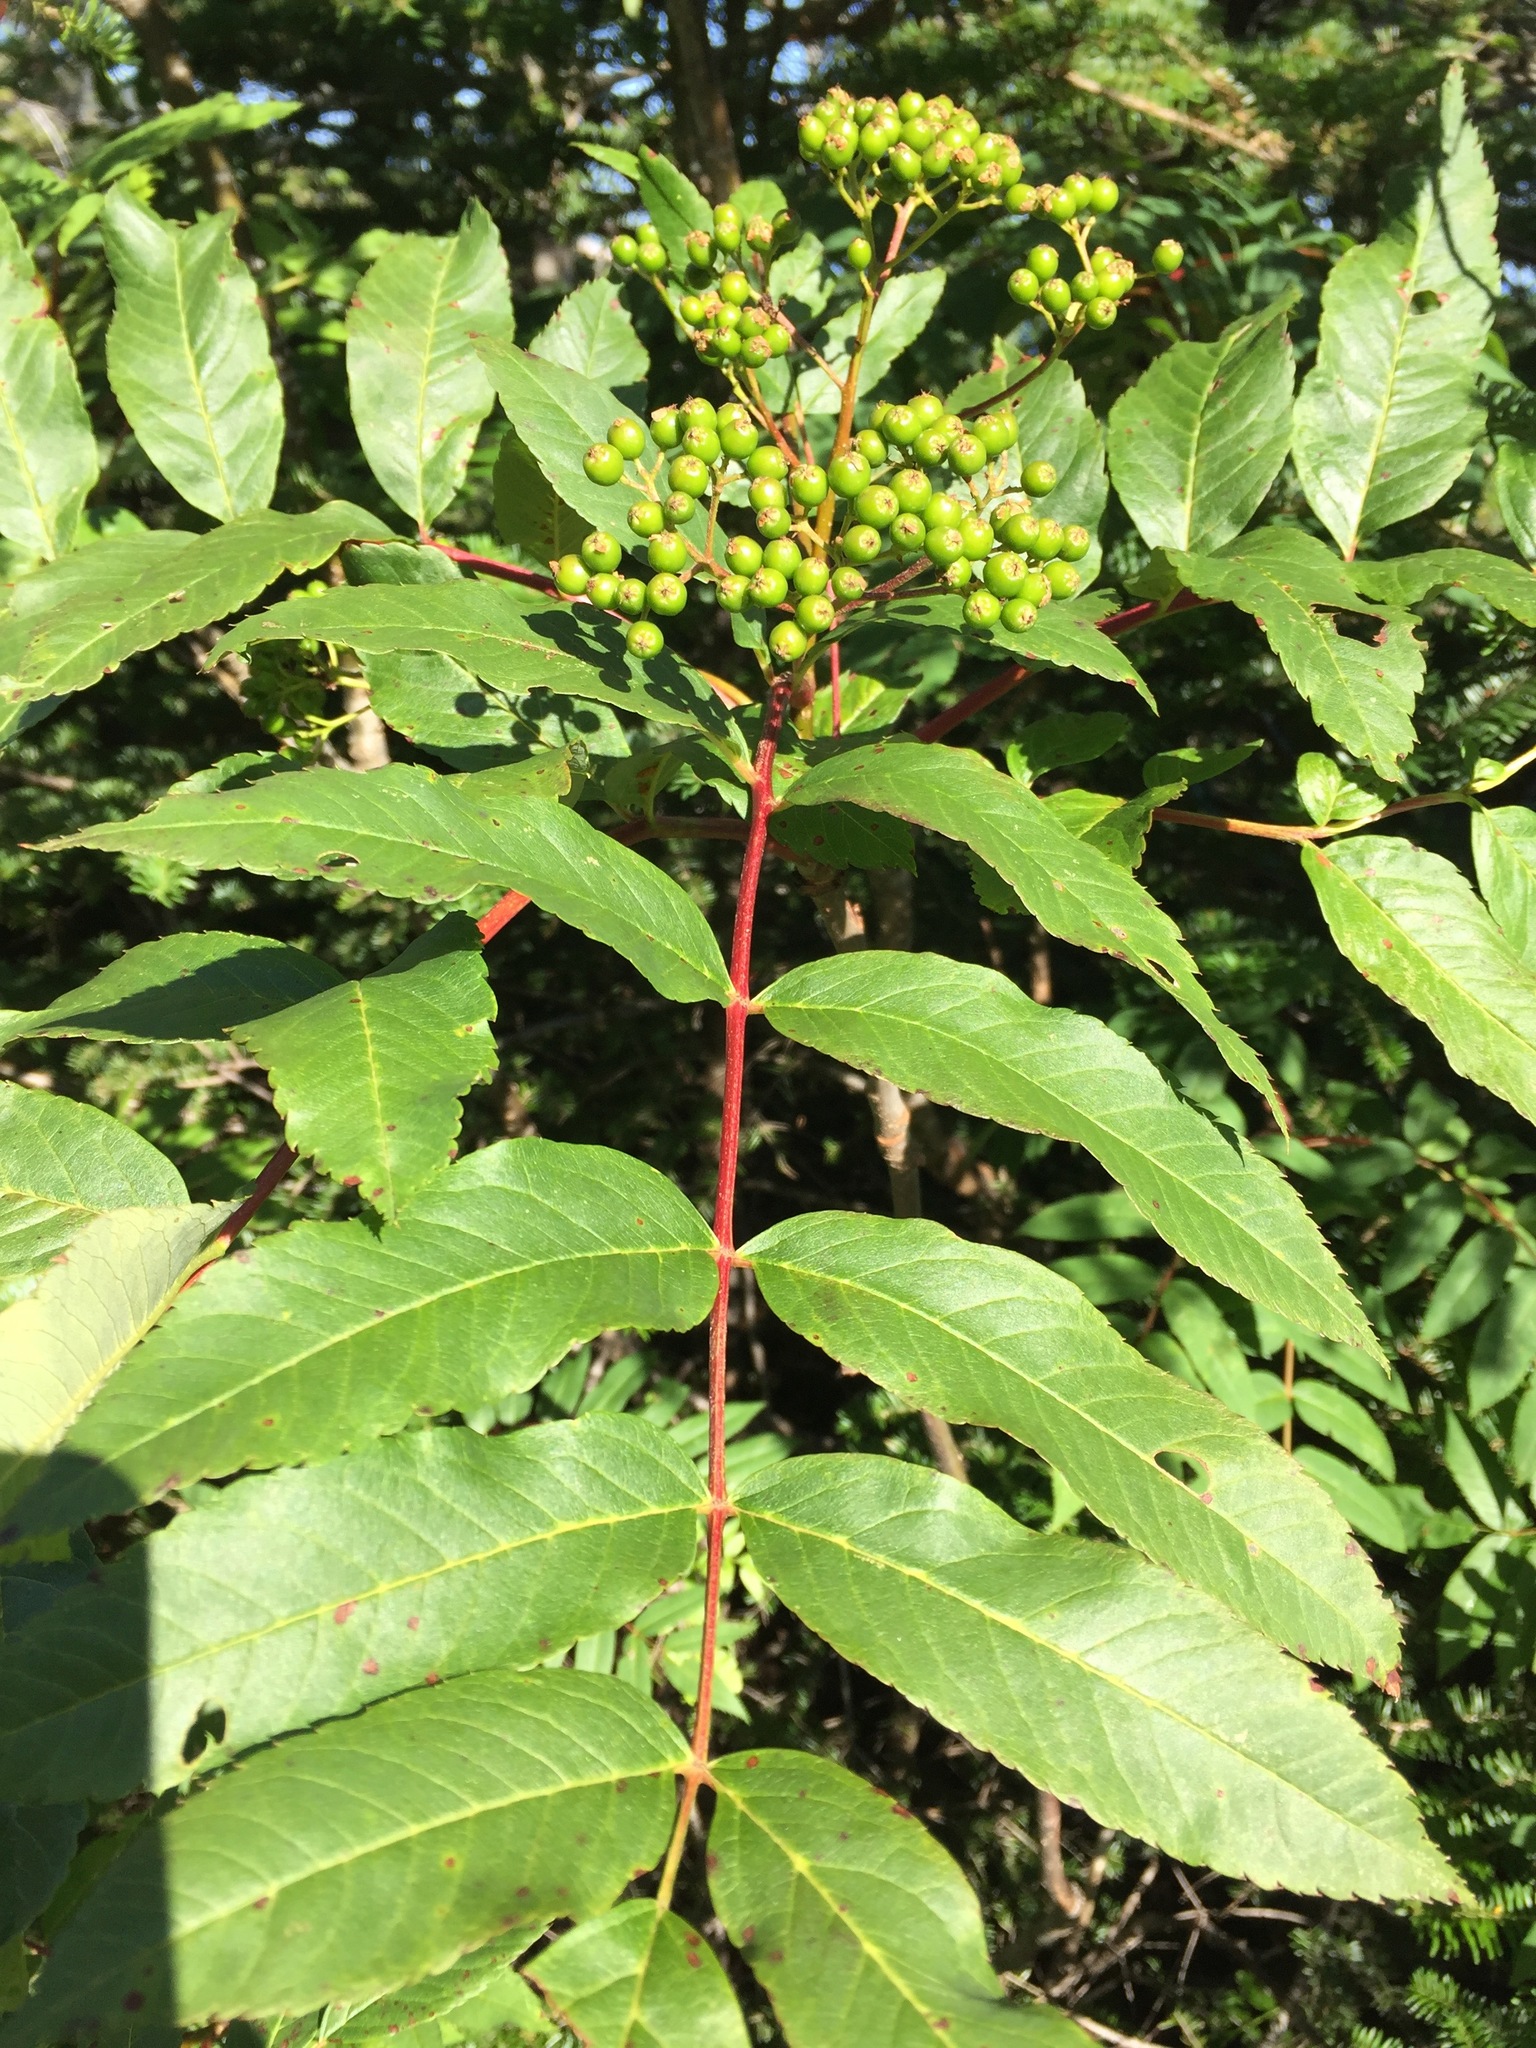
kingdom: Plantae
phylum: Tracheophyta
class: Magnoliopsida
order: Rosales
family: Rosaceae
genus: Sorbus
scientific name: Sorbus americana
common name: American mountain-ash
